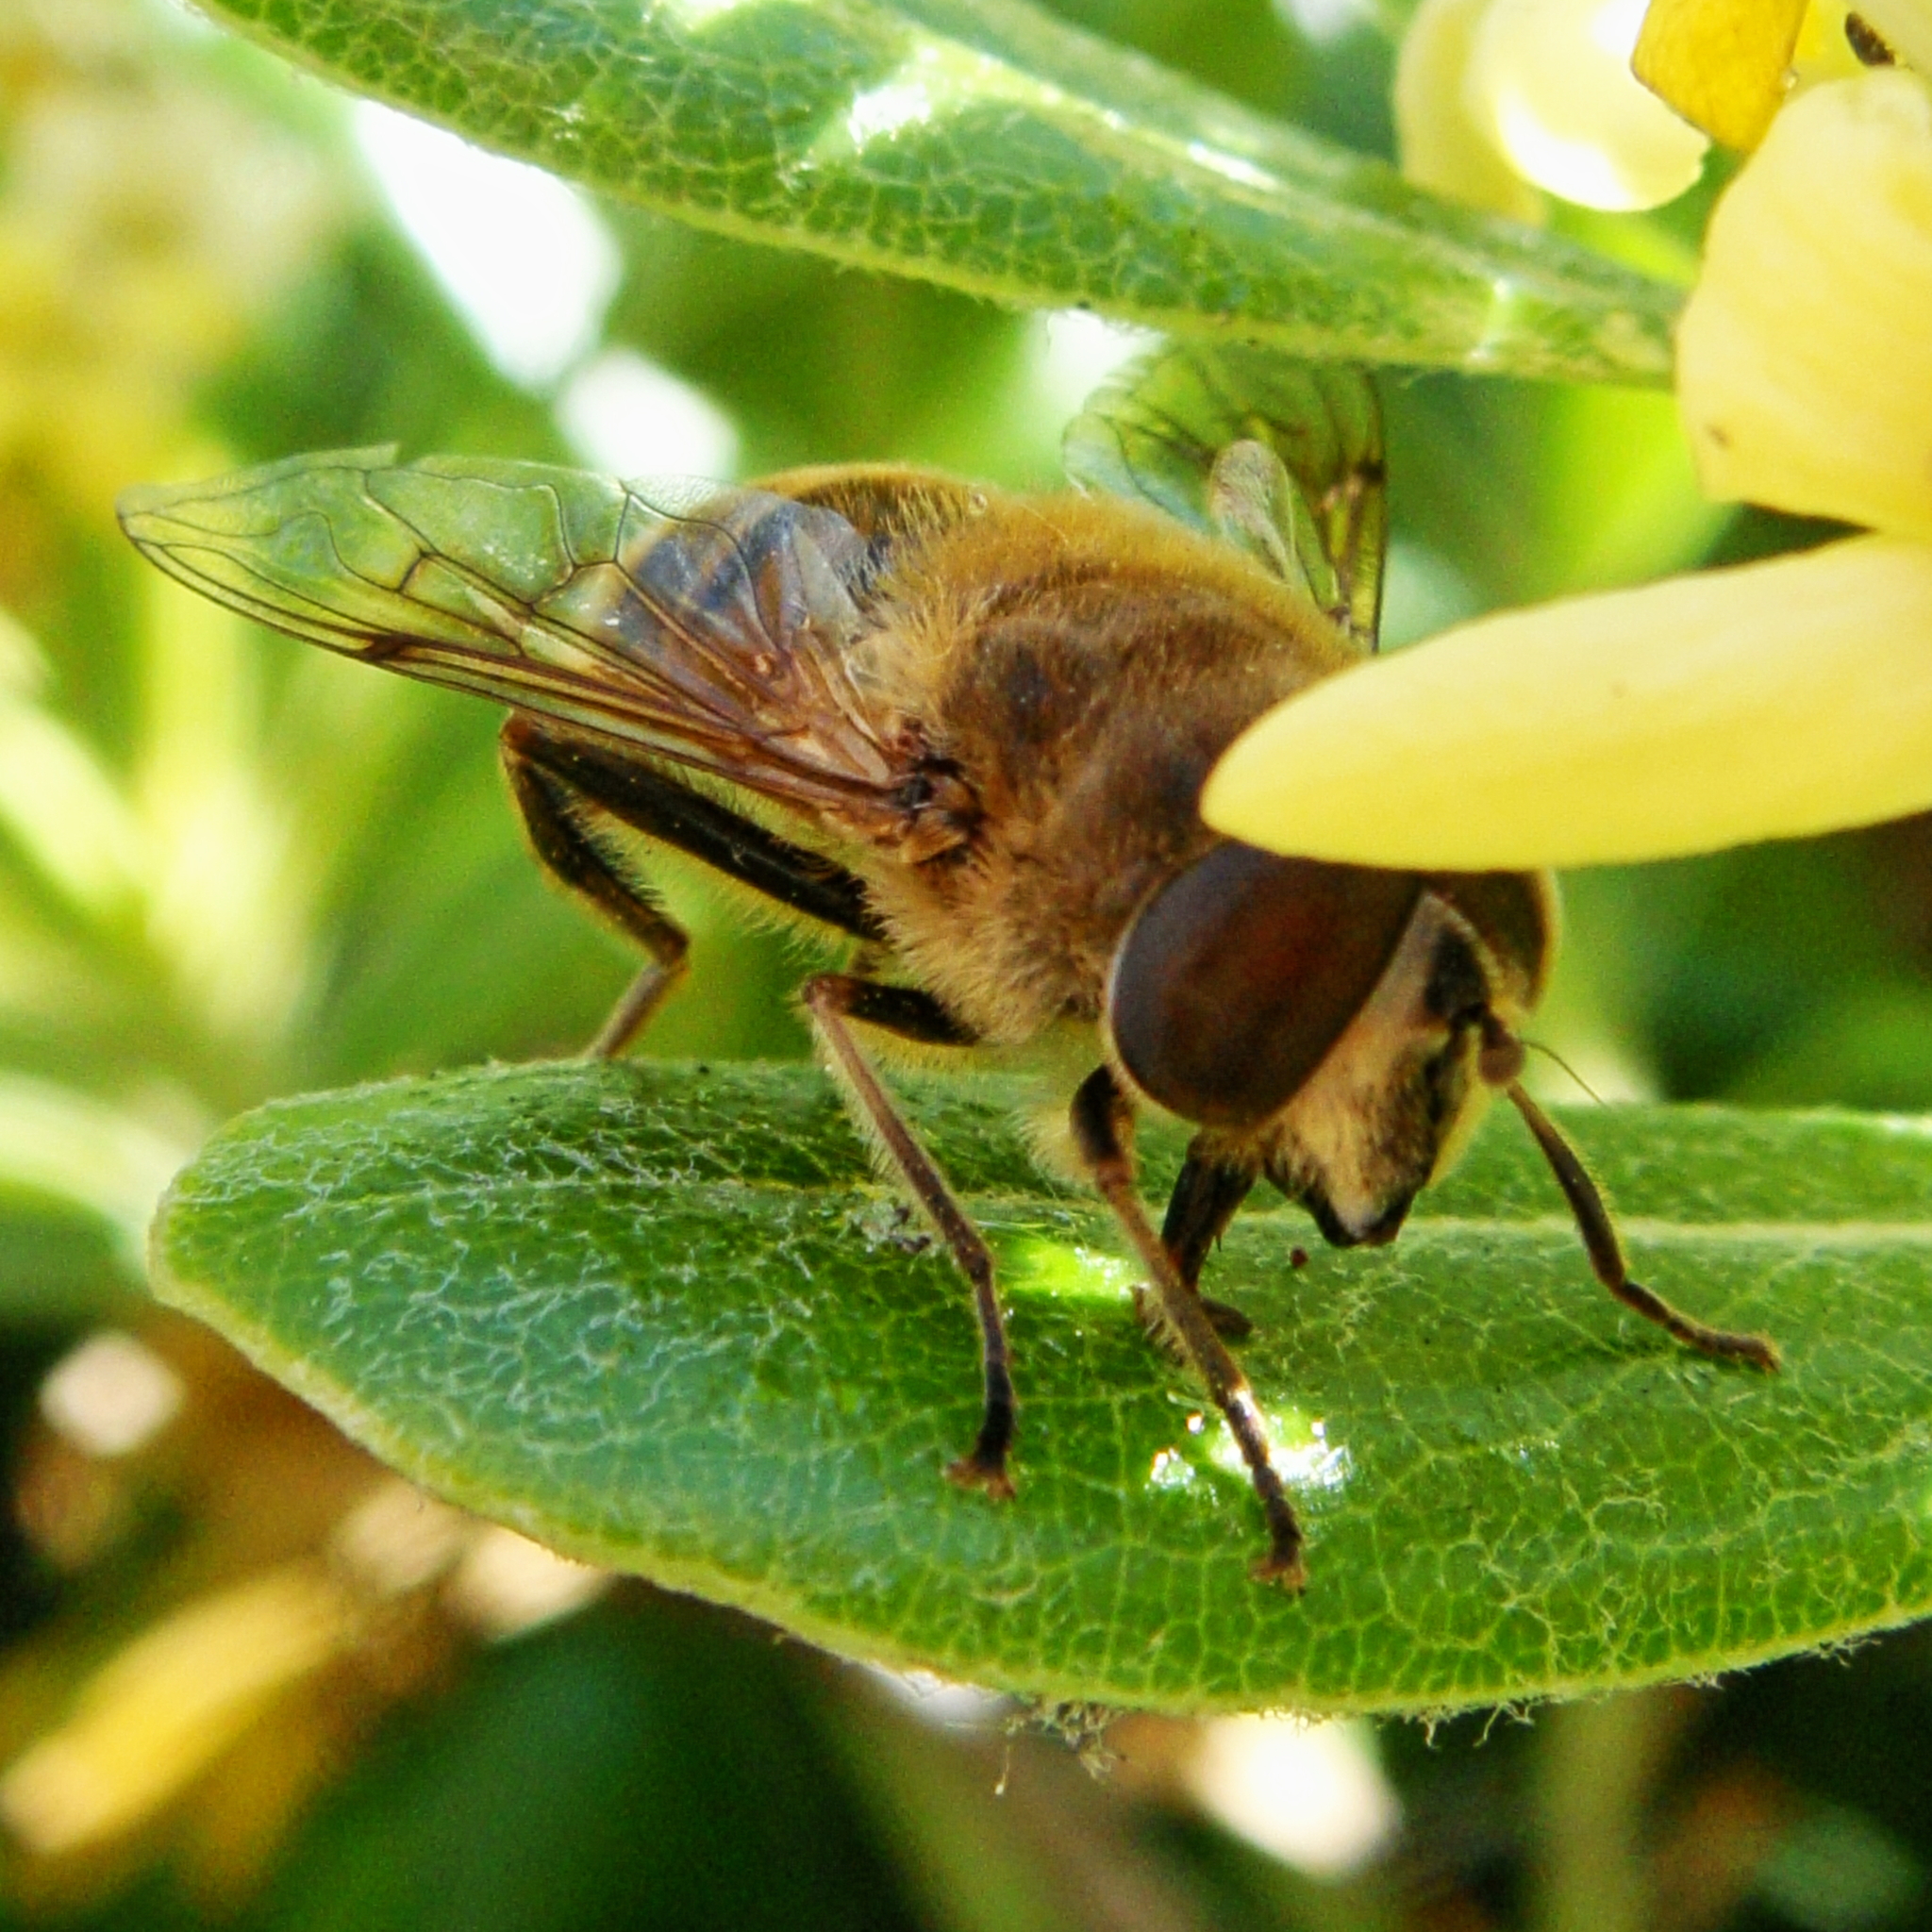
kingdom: Animalia
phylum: Arthropoda
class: Insecta
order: Diptera
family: Syrphidae
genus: Eristalis
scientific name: Eristalis tenax
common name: Drone fly
